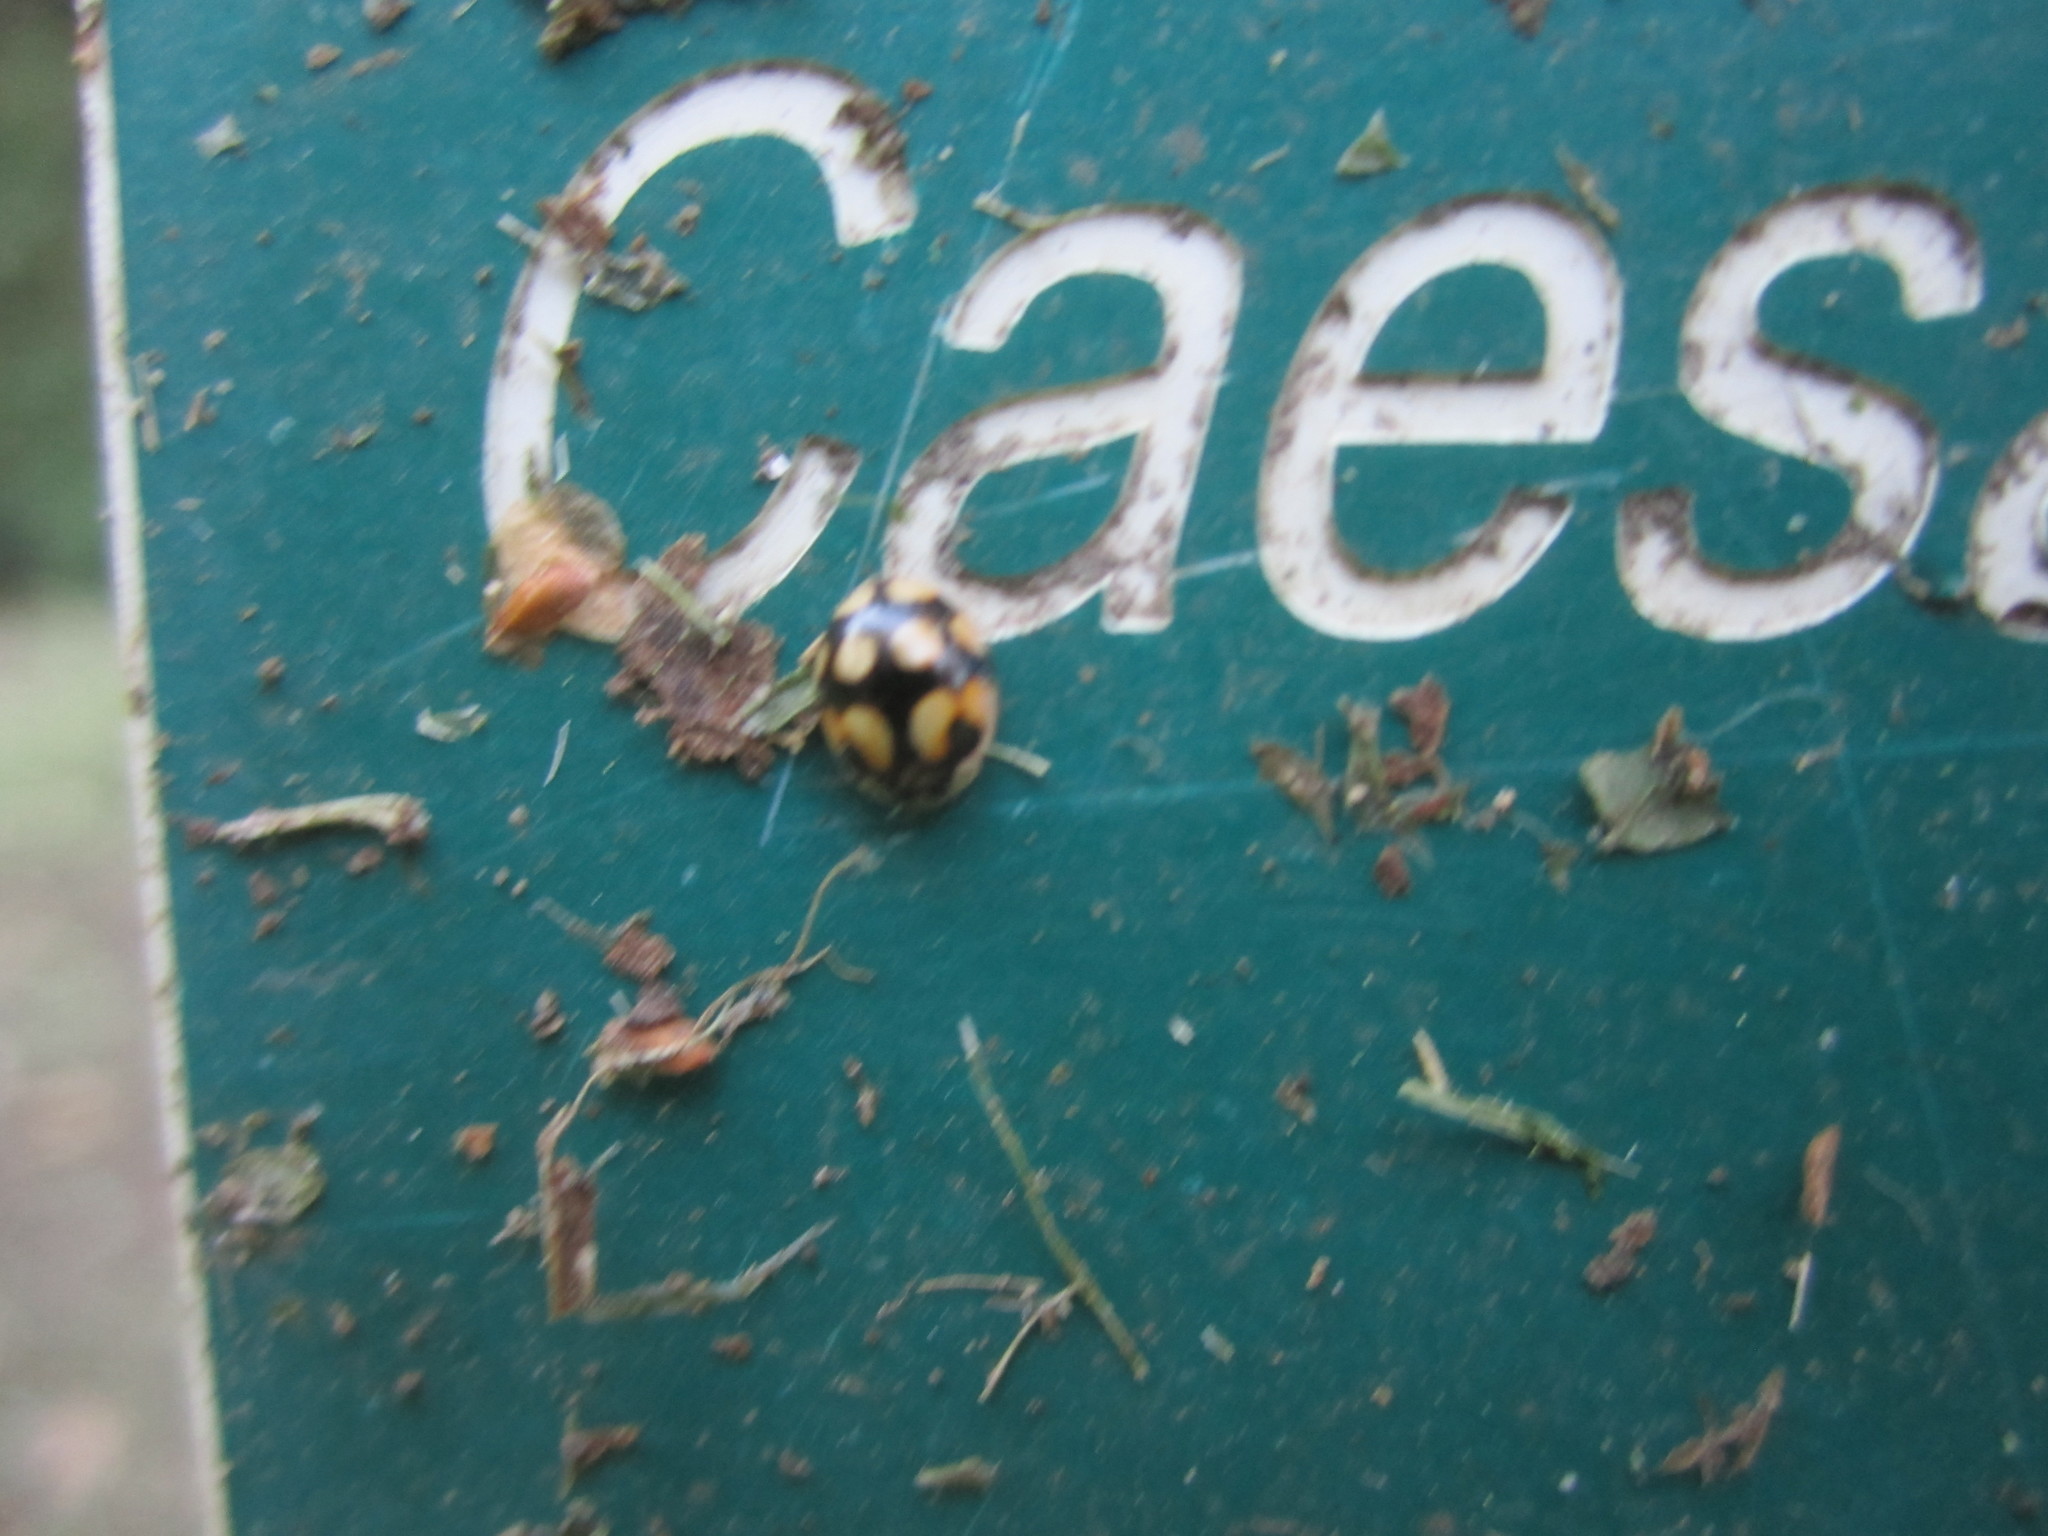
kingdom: Animalia
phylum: Arthropoda
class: Insecta
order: Coleoptera
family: Coccinellidae
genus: Adalia
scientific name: Adalia decempunctata
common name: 10-spot ladybird
